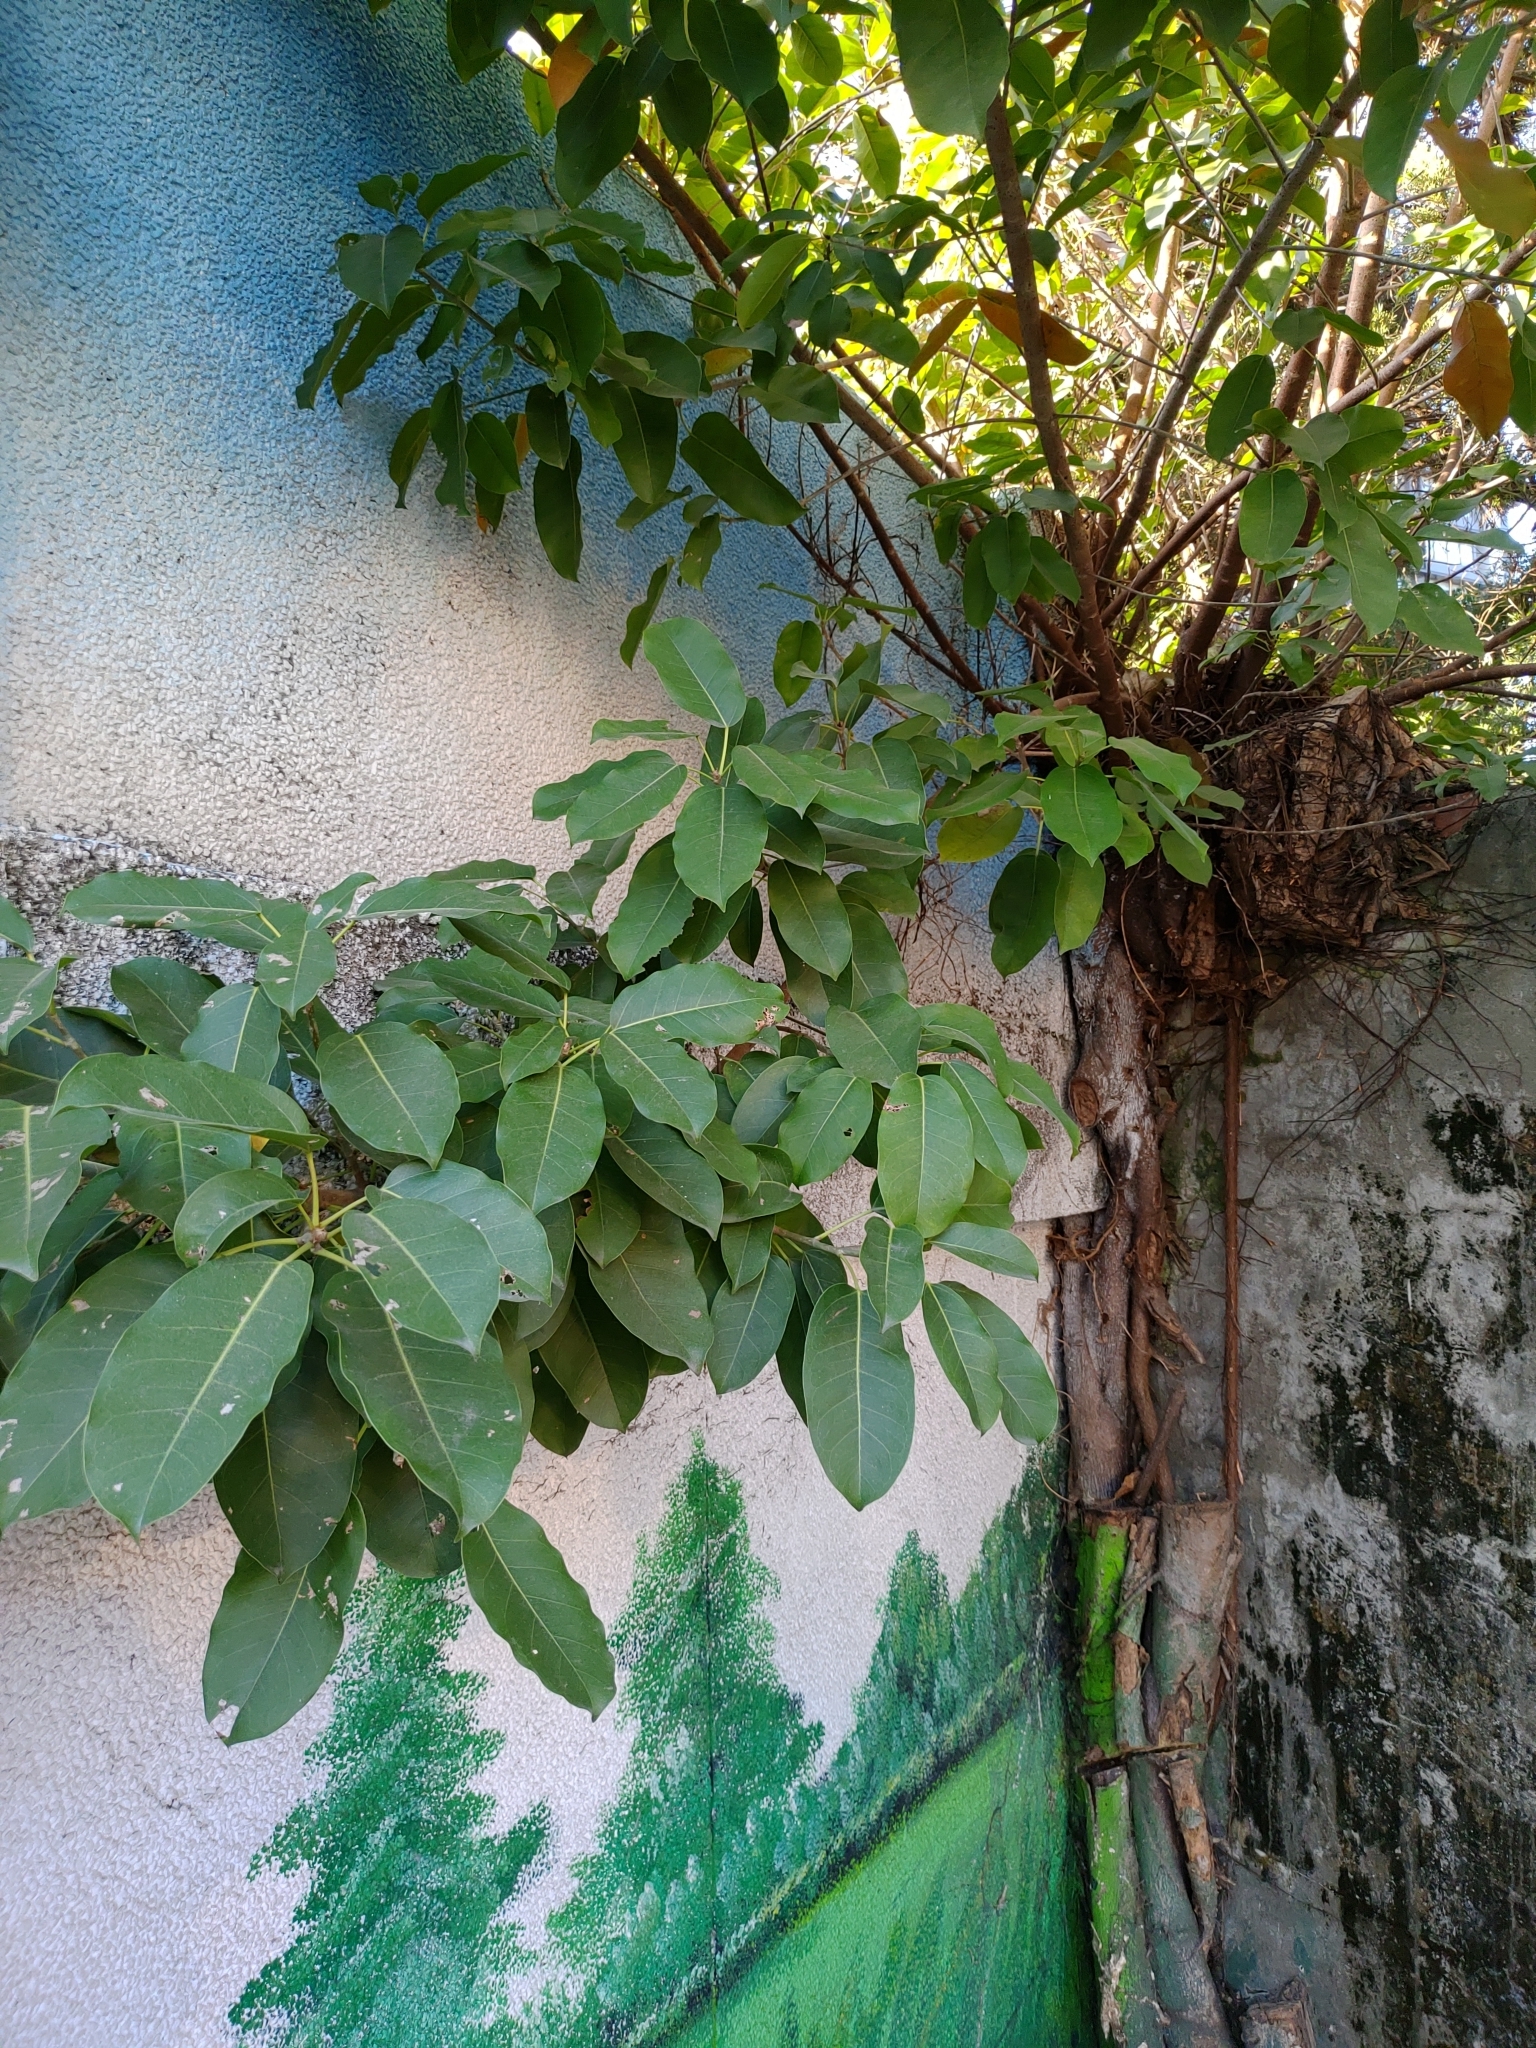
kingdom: Plantae
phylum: Tracheophyta
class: Magnoliopsida
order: Rosales
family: Moraceae
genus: Ficus
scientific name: Ficus subpisocarpa
